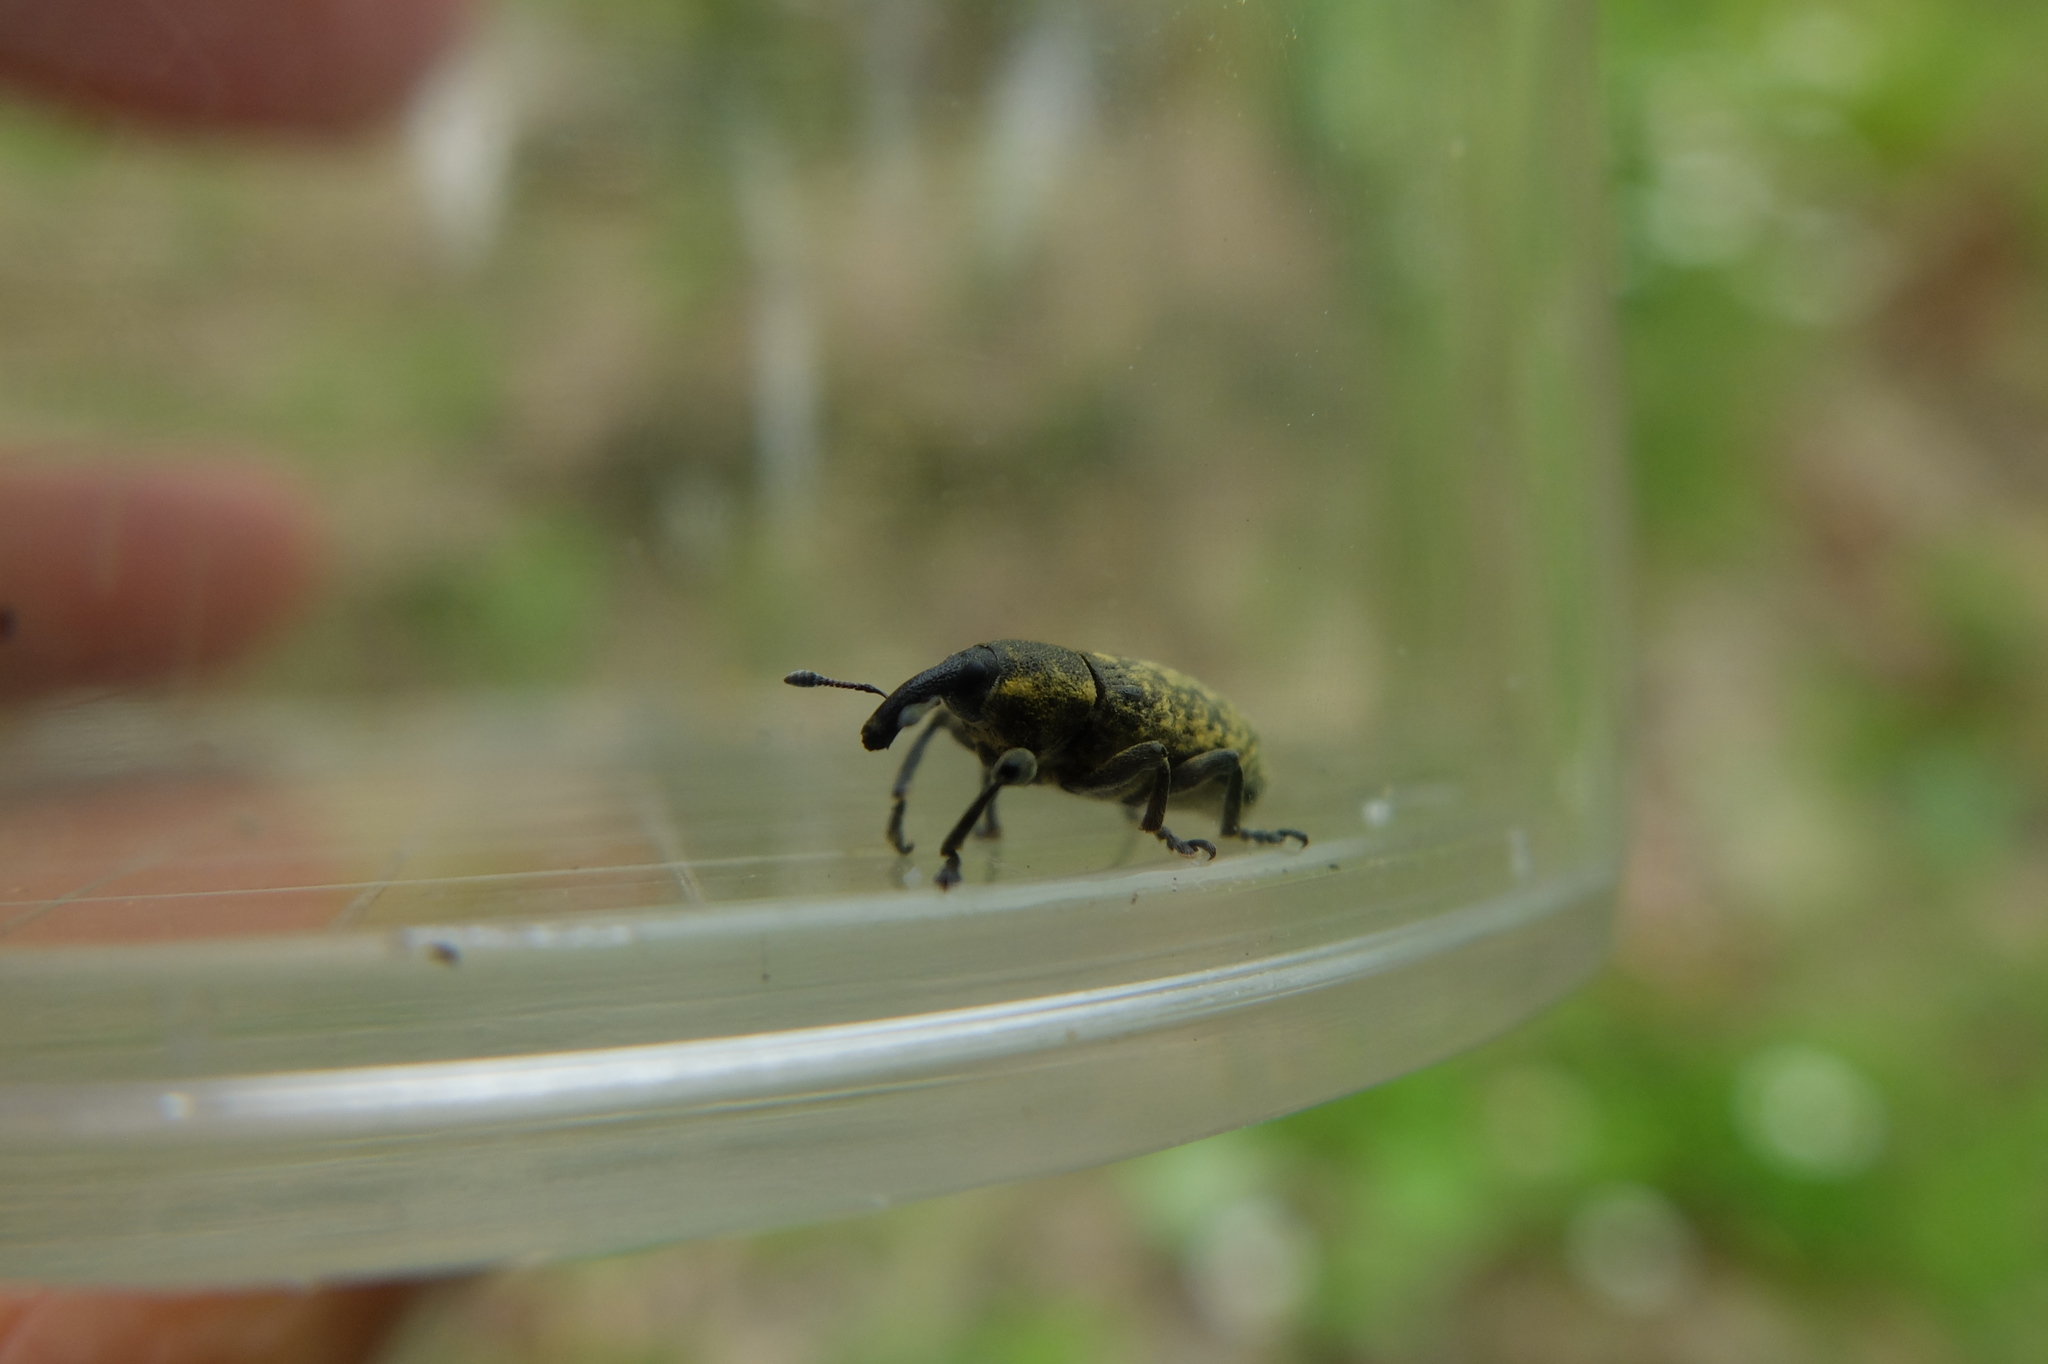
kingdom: Animalia
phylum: Arthropoda
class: Insecta
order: Coleoptera
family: Curculionidae
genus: Larinus
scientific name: Larinus carlinae
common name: Weevil
